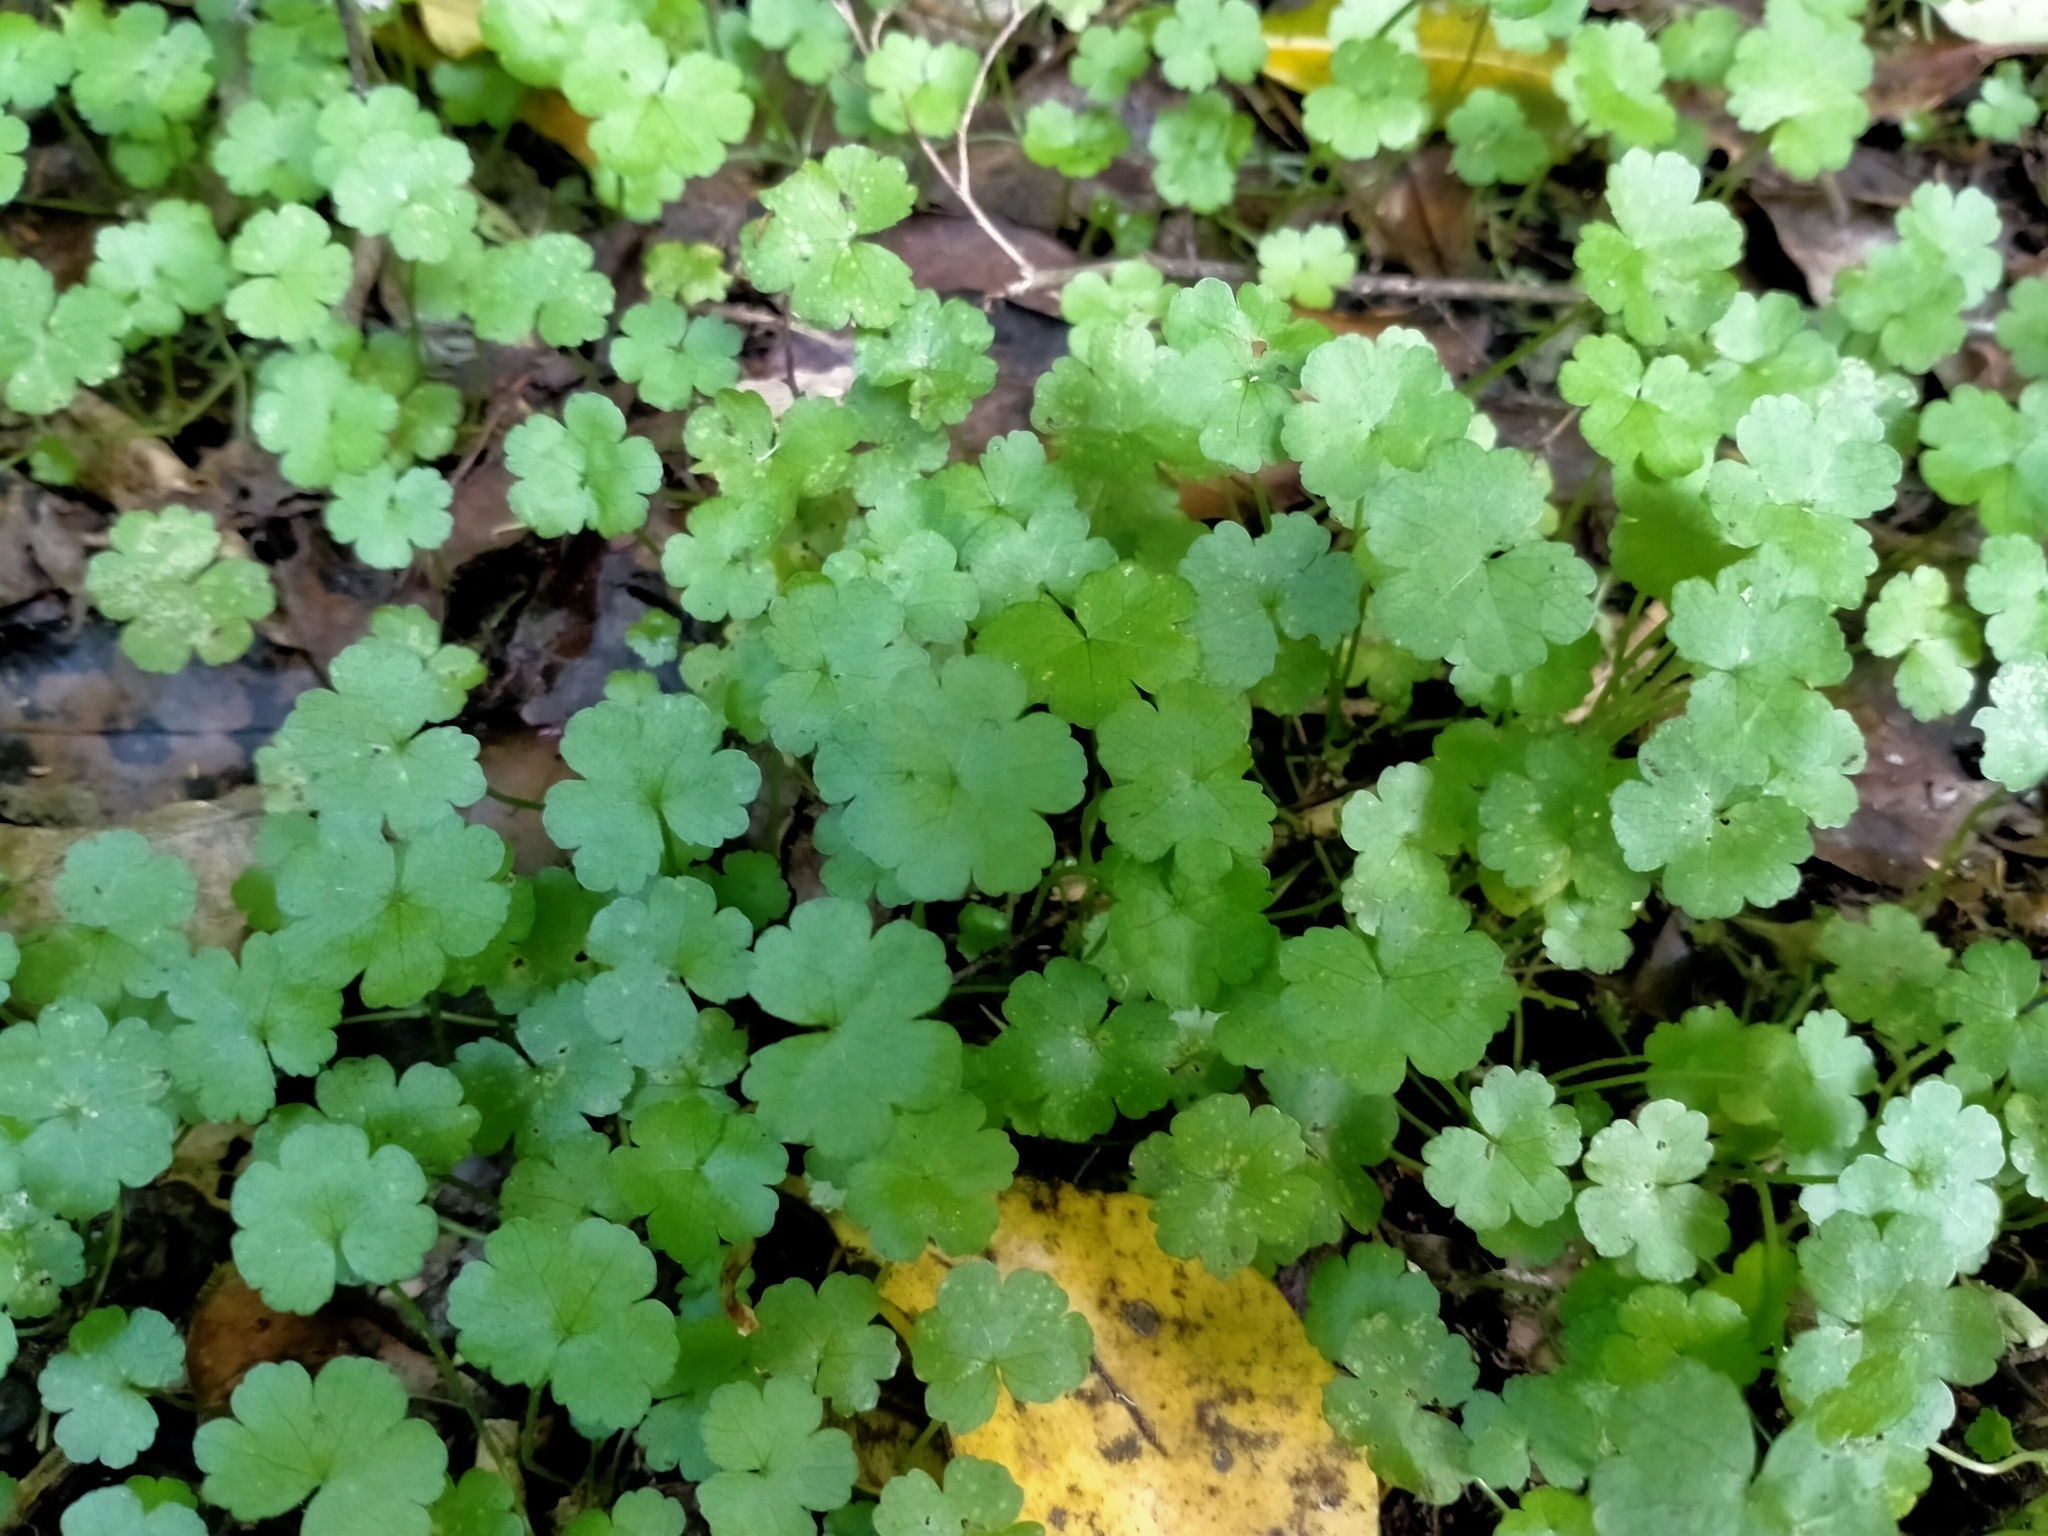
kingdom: Plantae
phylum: Tracheophyta
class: Magnoliopsida
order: Apiales
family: Araliaceae
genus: Hydrocotyle
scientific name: Hydrocotyle heteromeria
